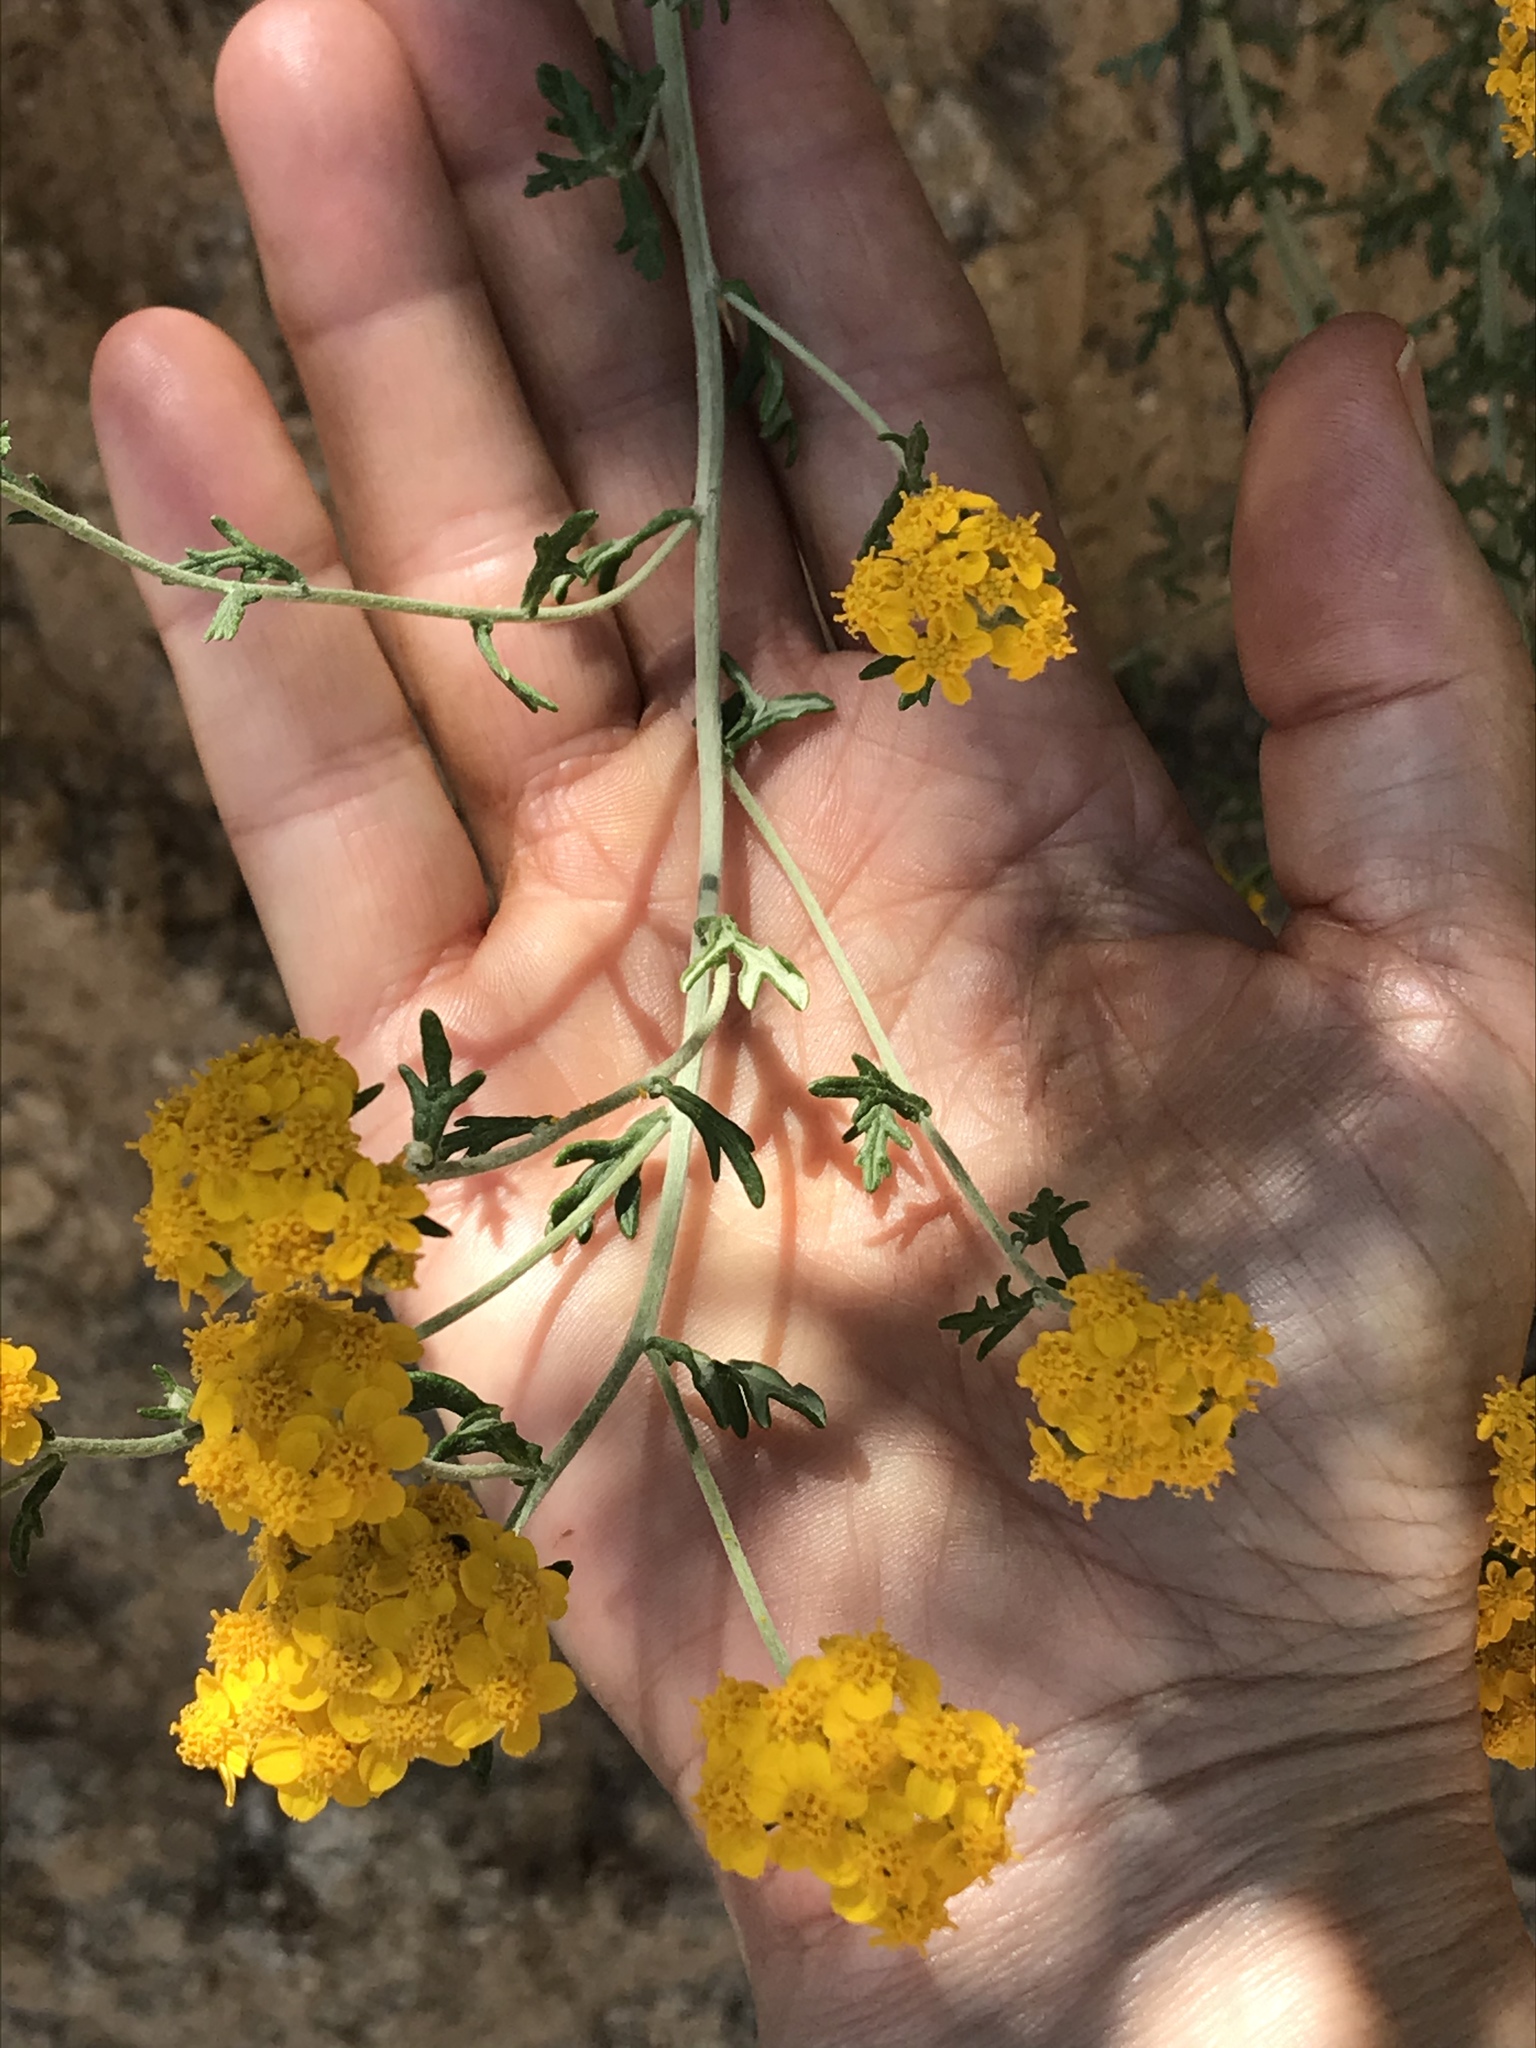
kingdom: Plantae
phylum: Tracheophyta
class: Magnoliopsida
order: Asterales
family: Asteraceae
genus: Eriophyllum
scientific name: Eriophyllum confertiflorum
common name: Golden-yarrow
